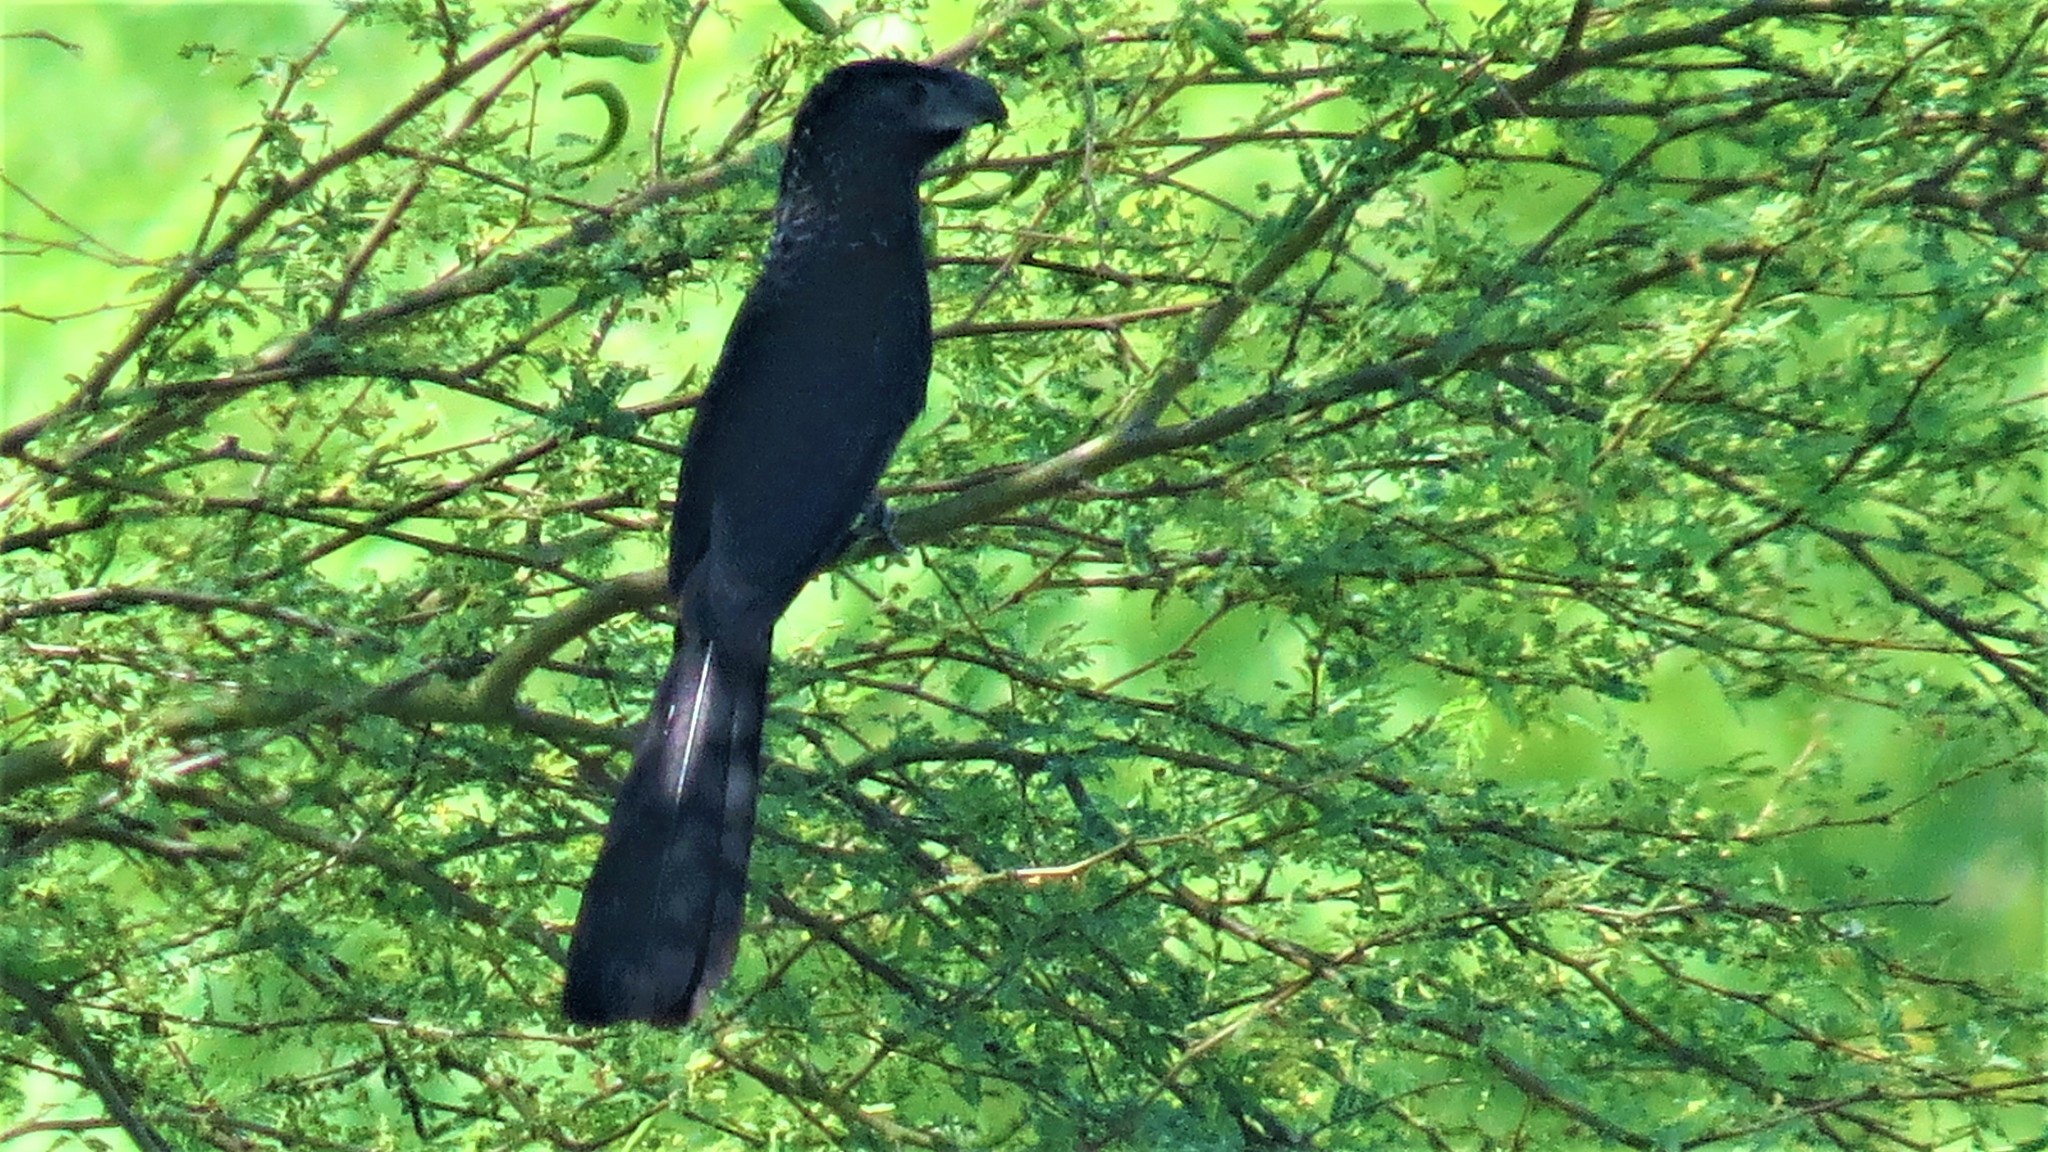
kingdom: Animalia
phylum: Chordata
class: Aves
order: Cuculiformes
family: Cuculidae
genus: Crotophaga
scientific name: Crotophaga sulcirostris
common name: Groove-billed ani
